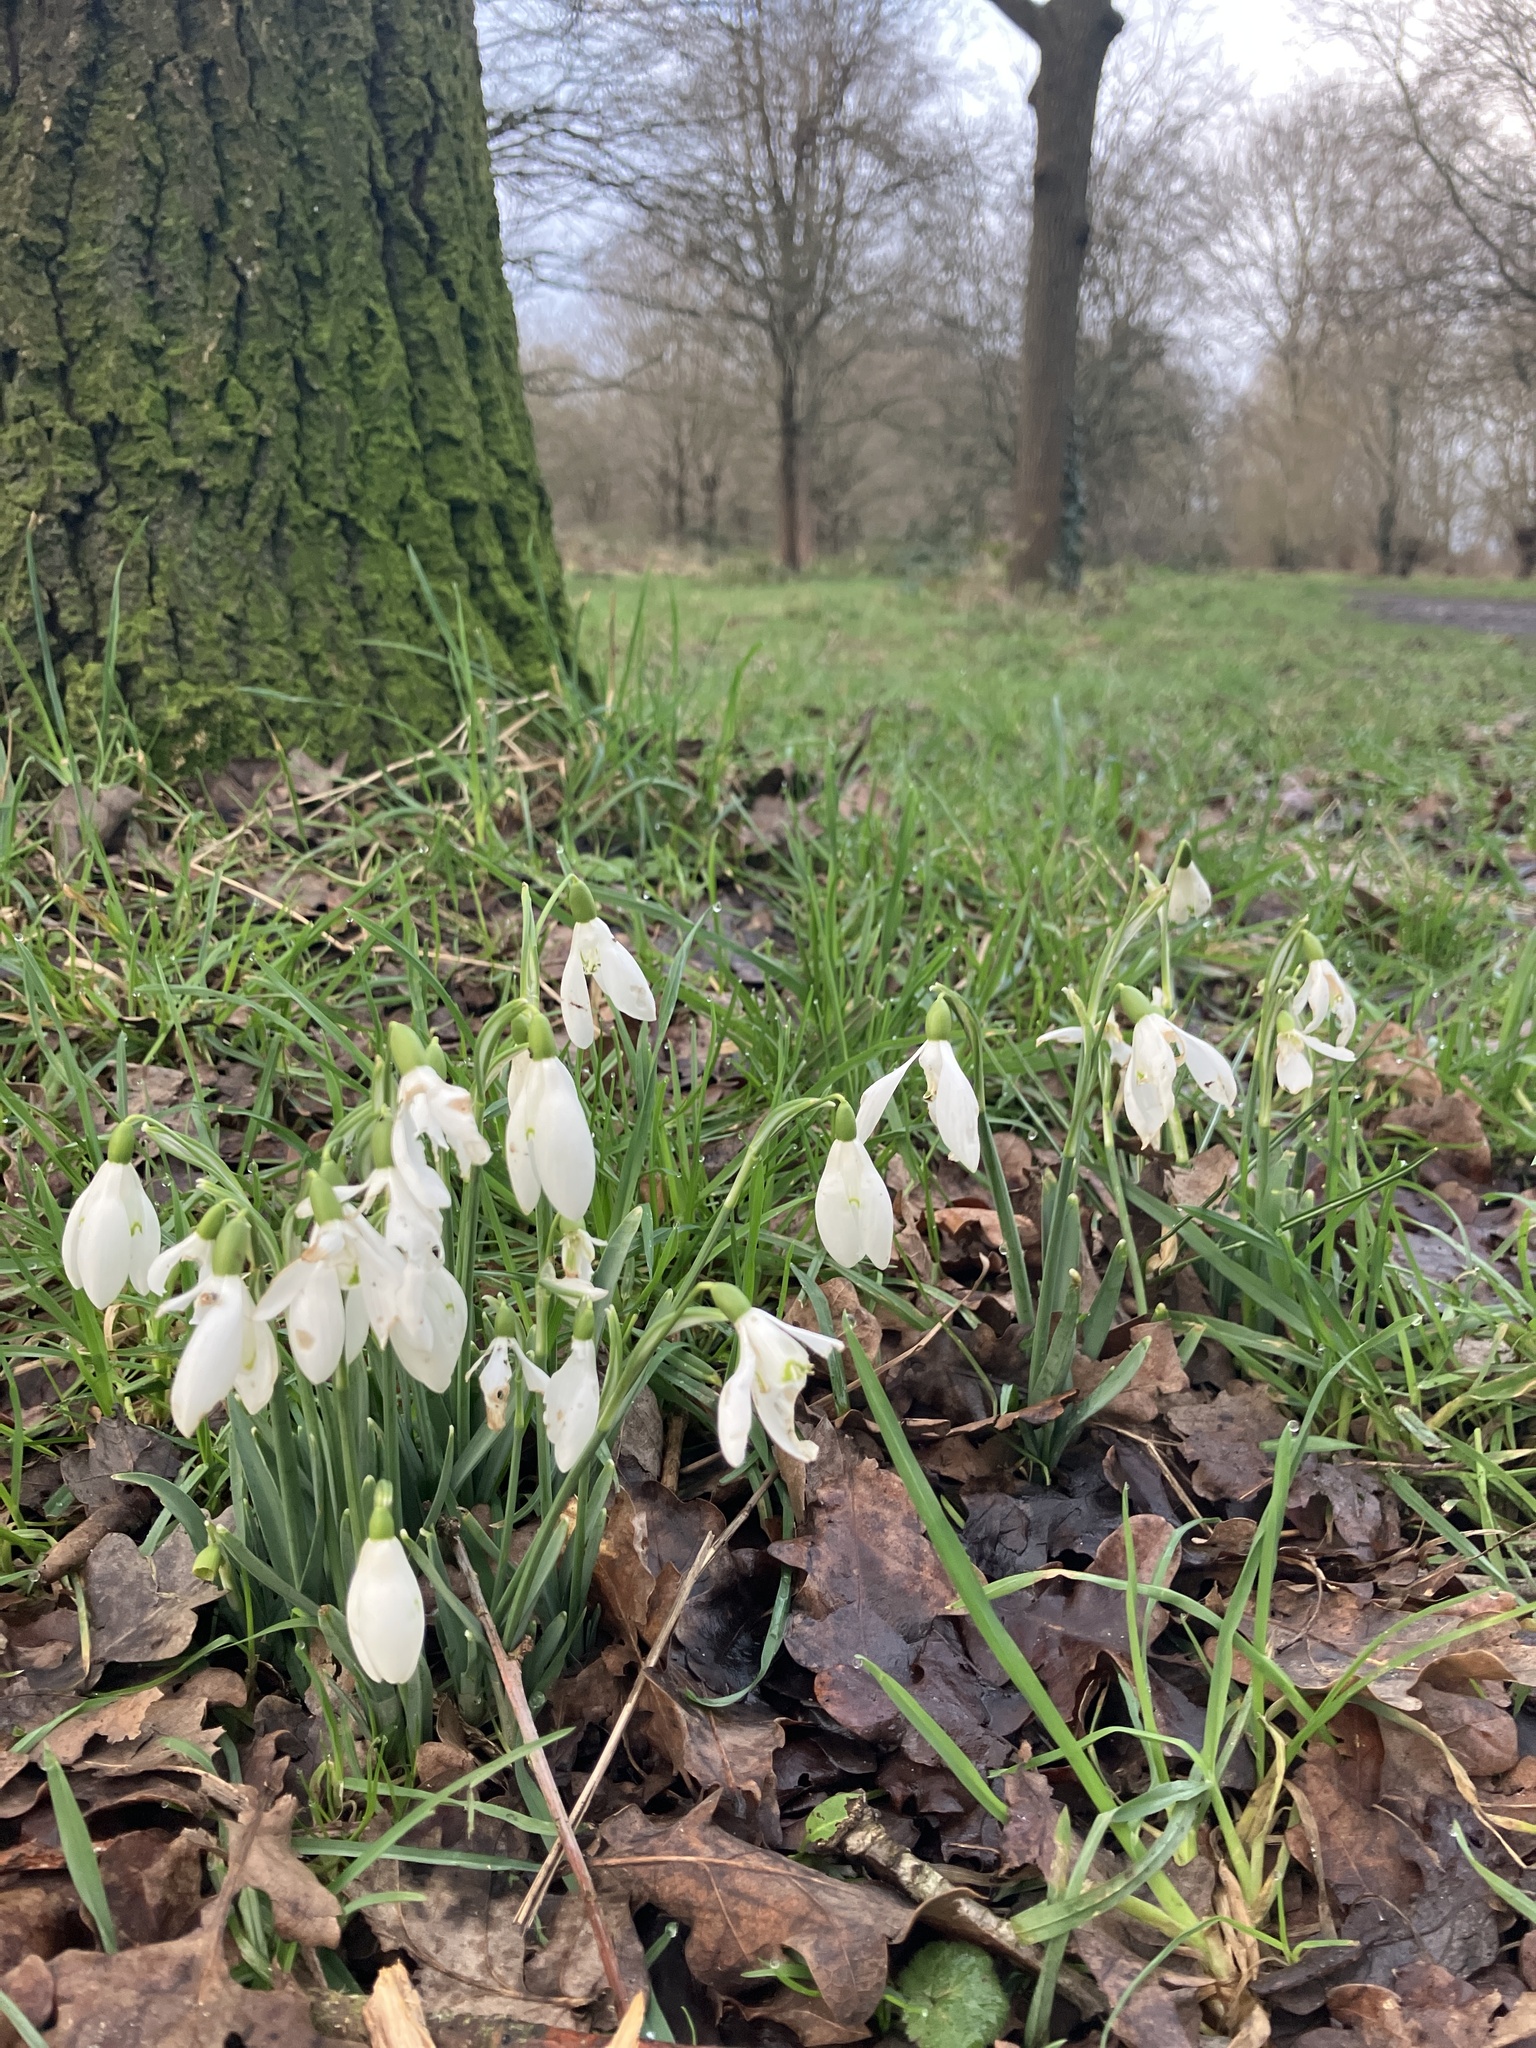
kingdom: Plantae
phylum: Tracheophyta
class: Liliopsida
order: Asparagales
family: Amaryllidaceae
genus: Galanthus
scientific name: Galanthus nivalis
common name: Snowdrop
